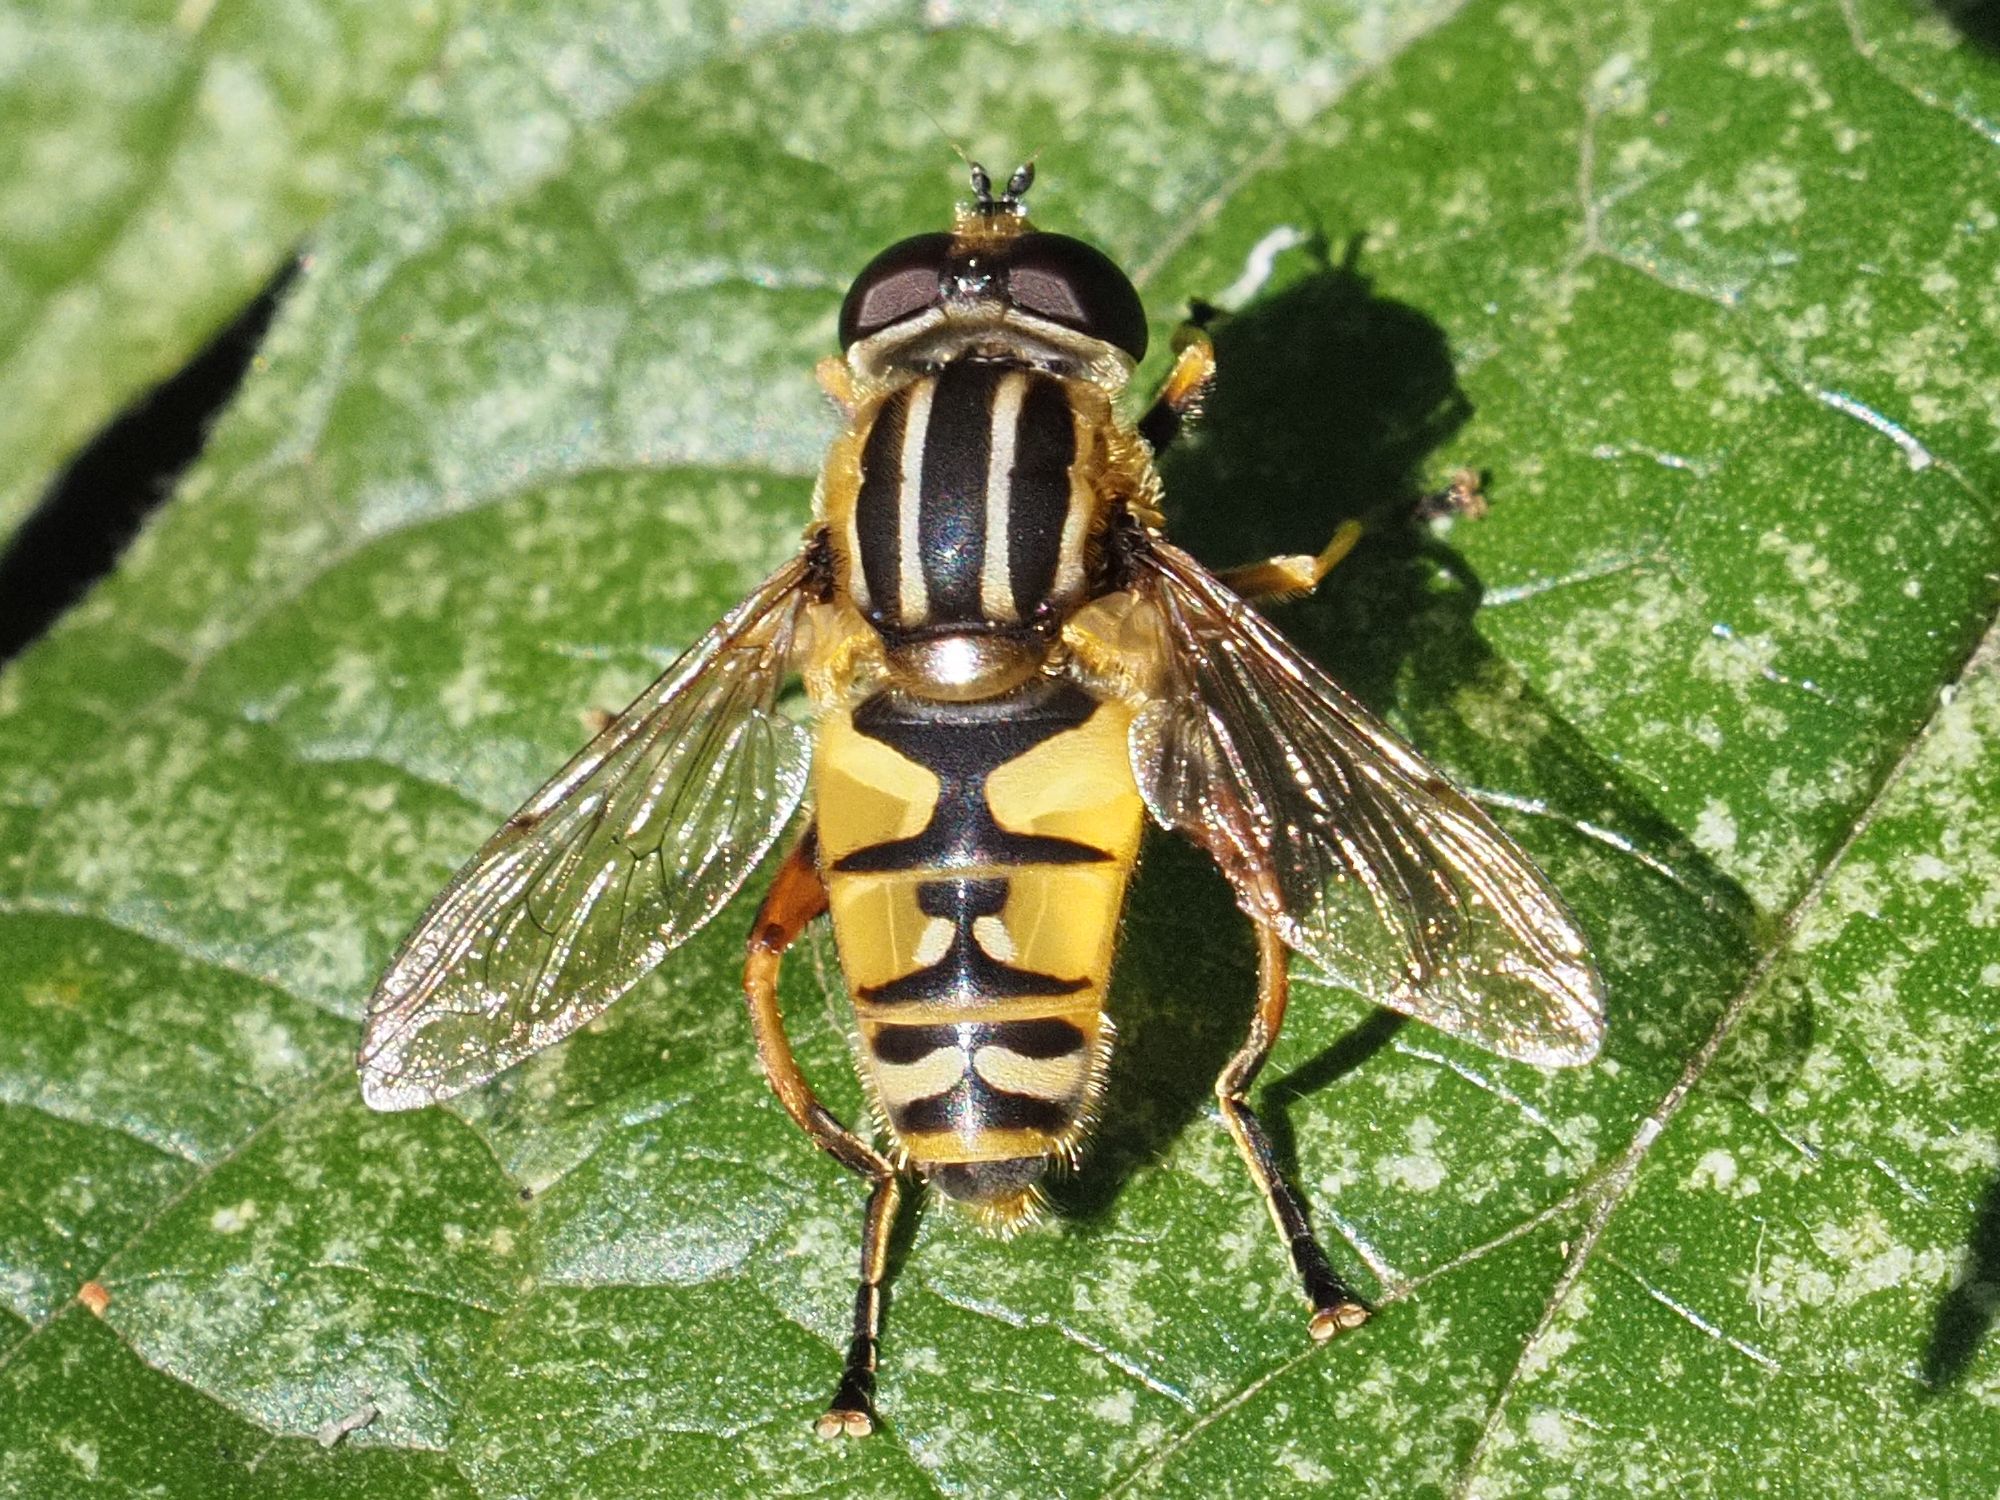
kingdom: Animalia
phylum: Arthropoda
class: Insecta
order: Diptera
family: Syrphidae
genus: Helophilus
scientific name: Helophilus pendulus
